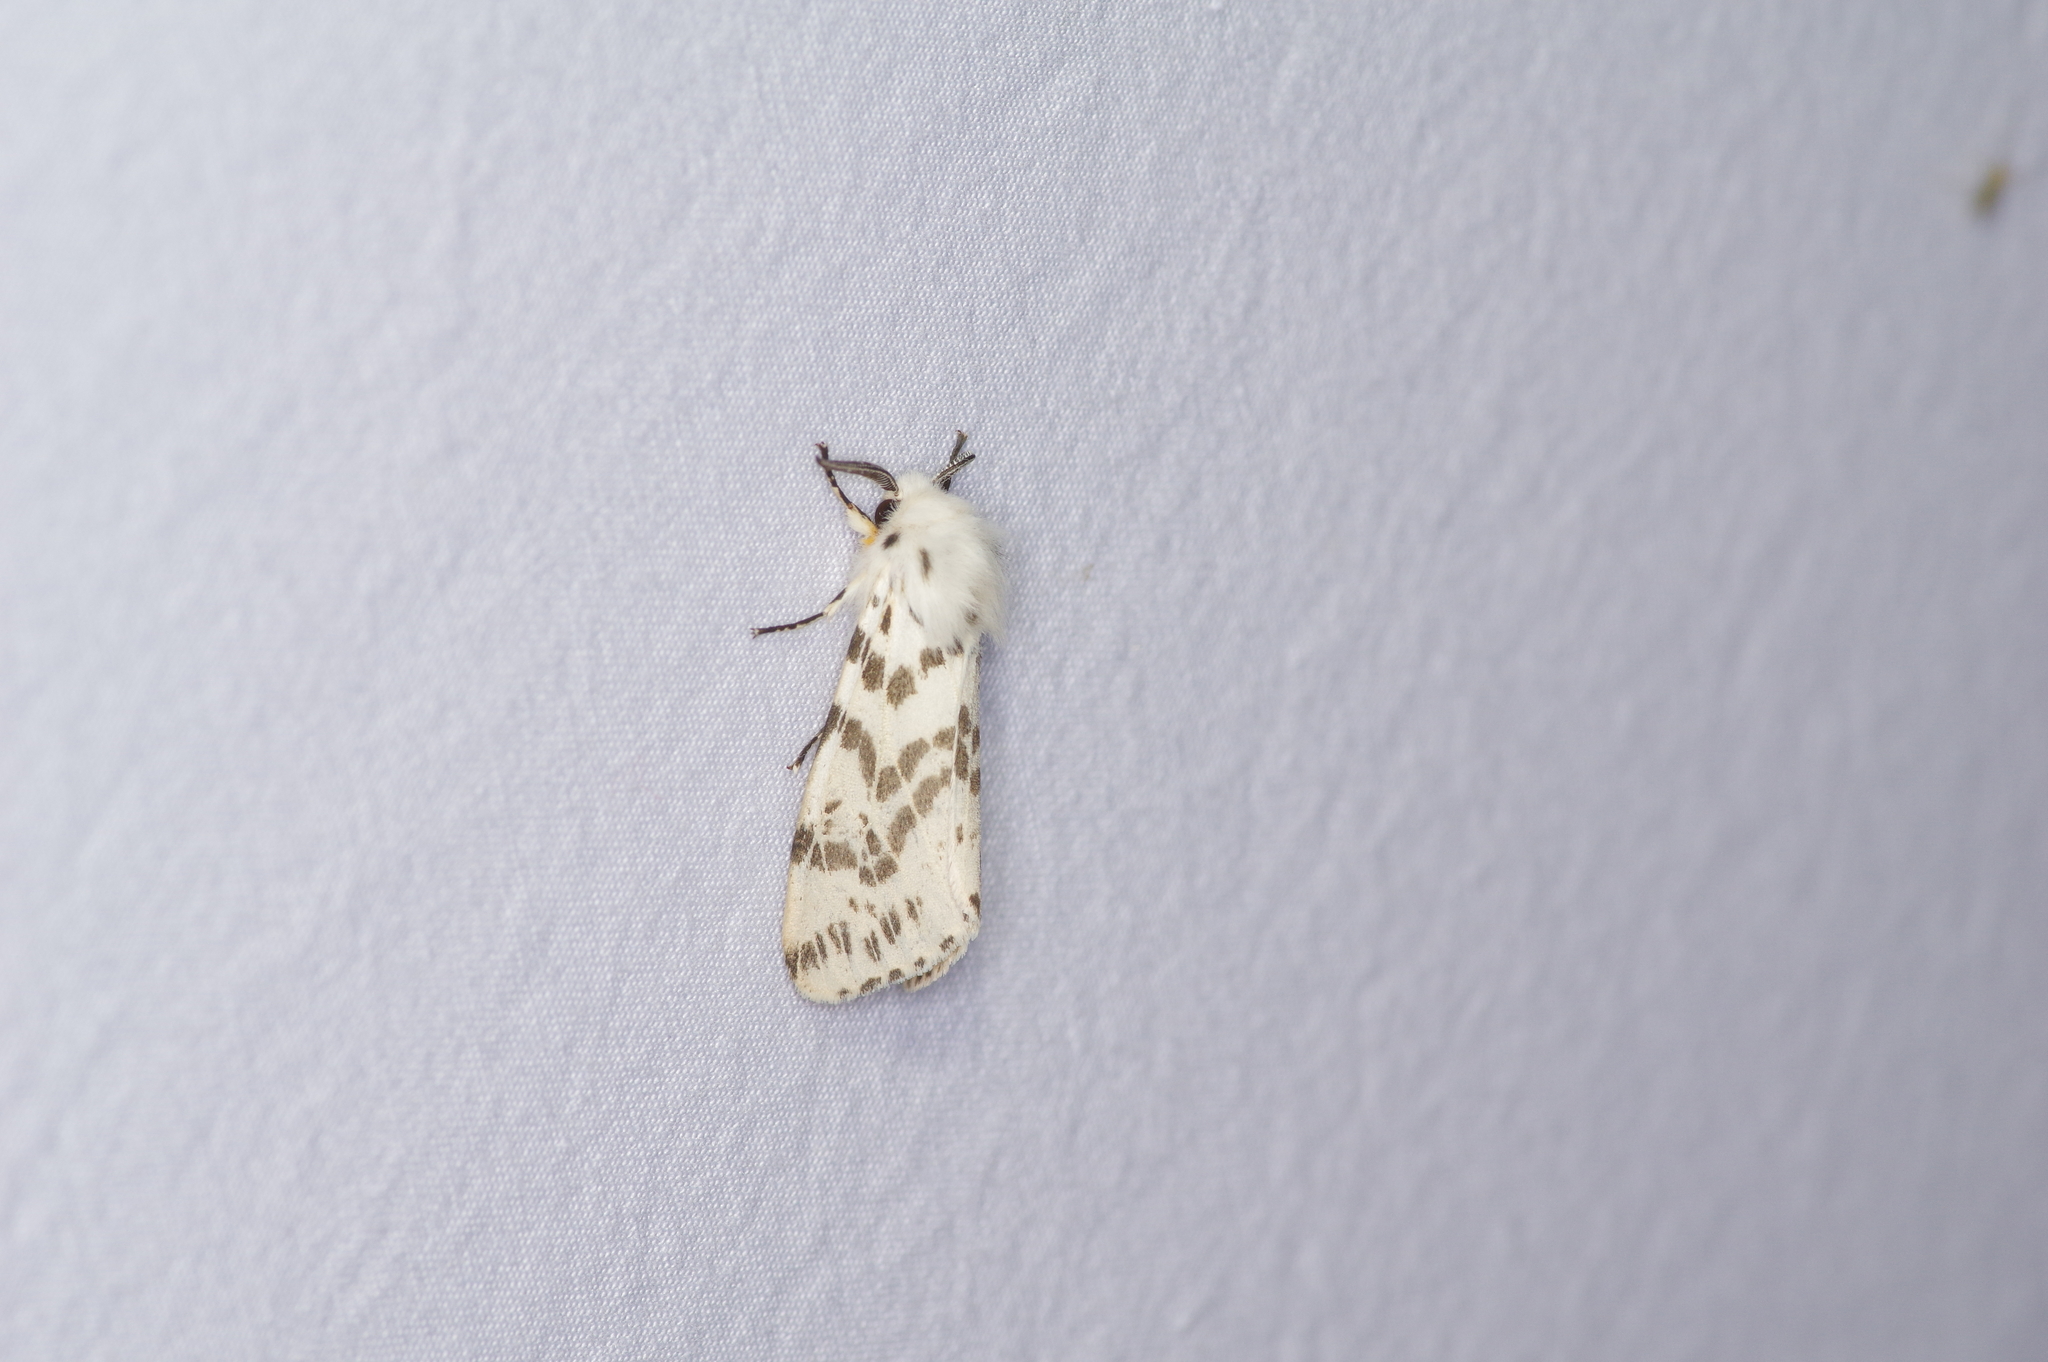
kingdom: Animalia
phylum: Arthropoda
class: Insecta
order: Lepidoptera
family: Erebidae
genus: Hyphantria
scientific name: Hyphantria cunea
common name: American white moth
